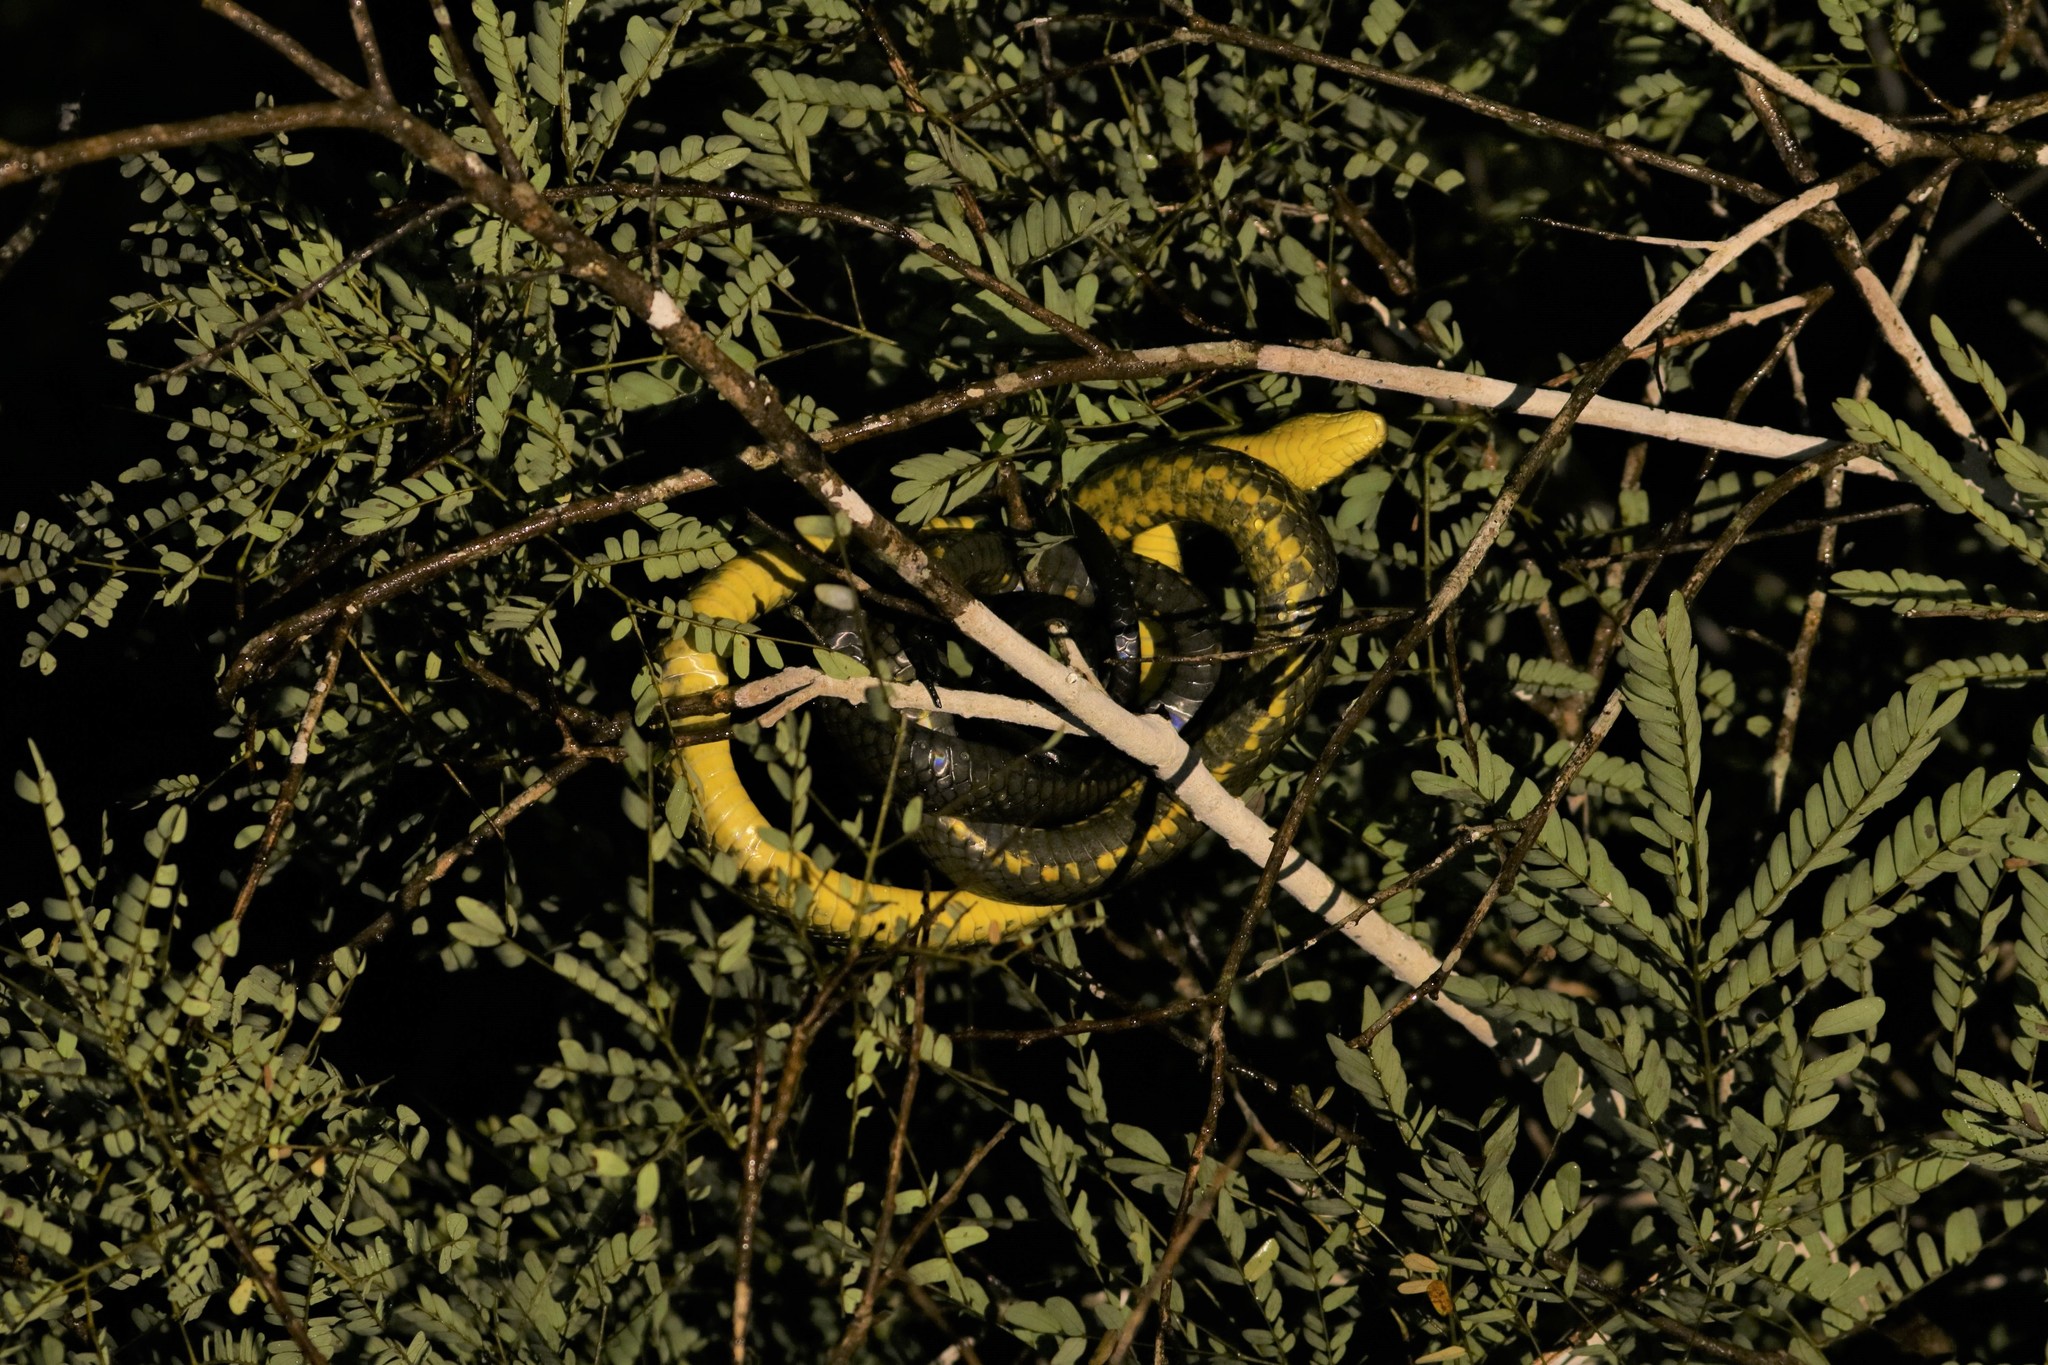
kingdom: Animalia
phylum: Chordata
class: Squamata
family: Colubridae
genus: Spilotes
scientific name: Spilotes sulphureus
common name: Amazon puffing snake
